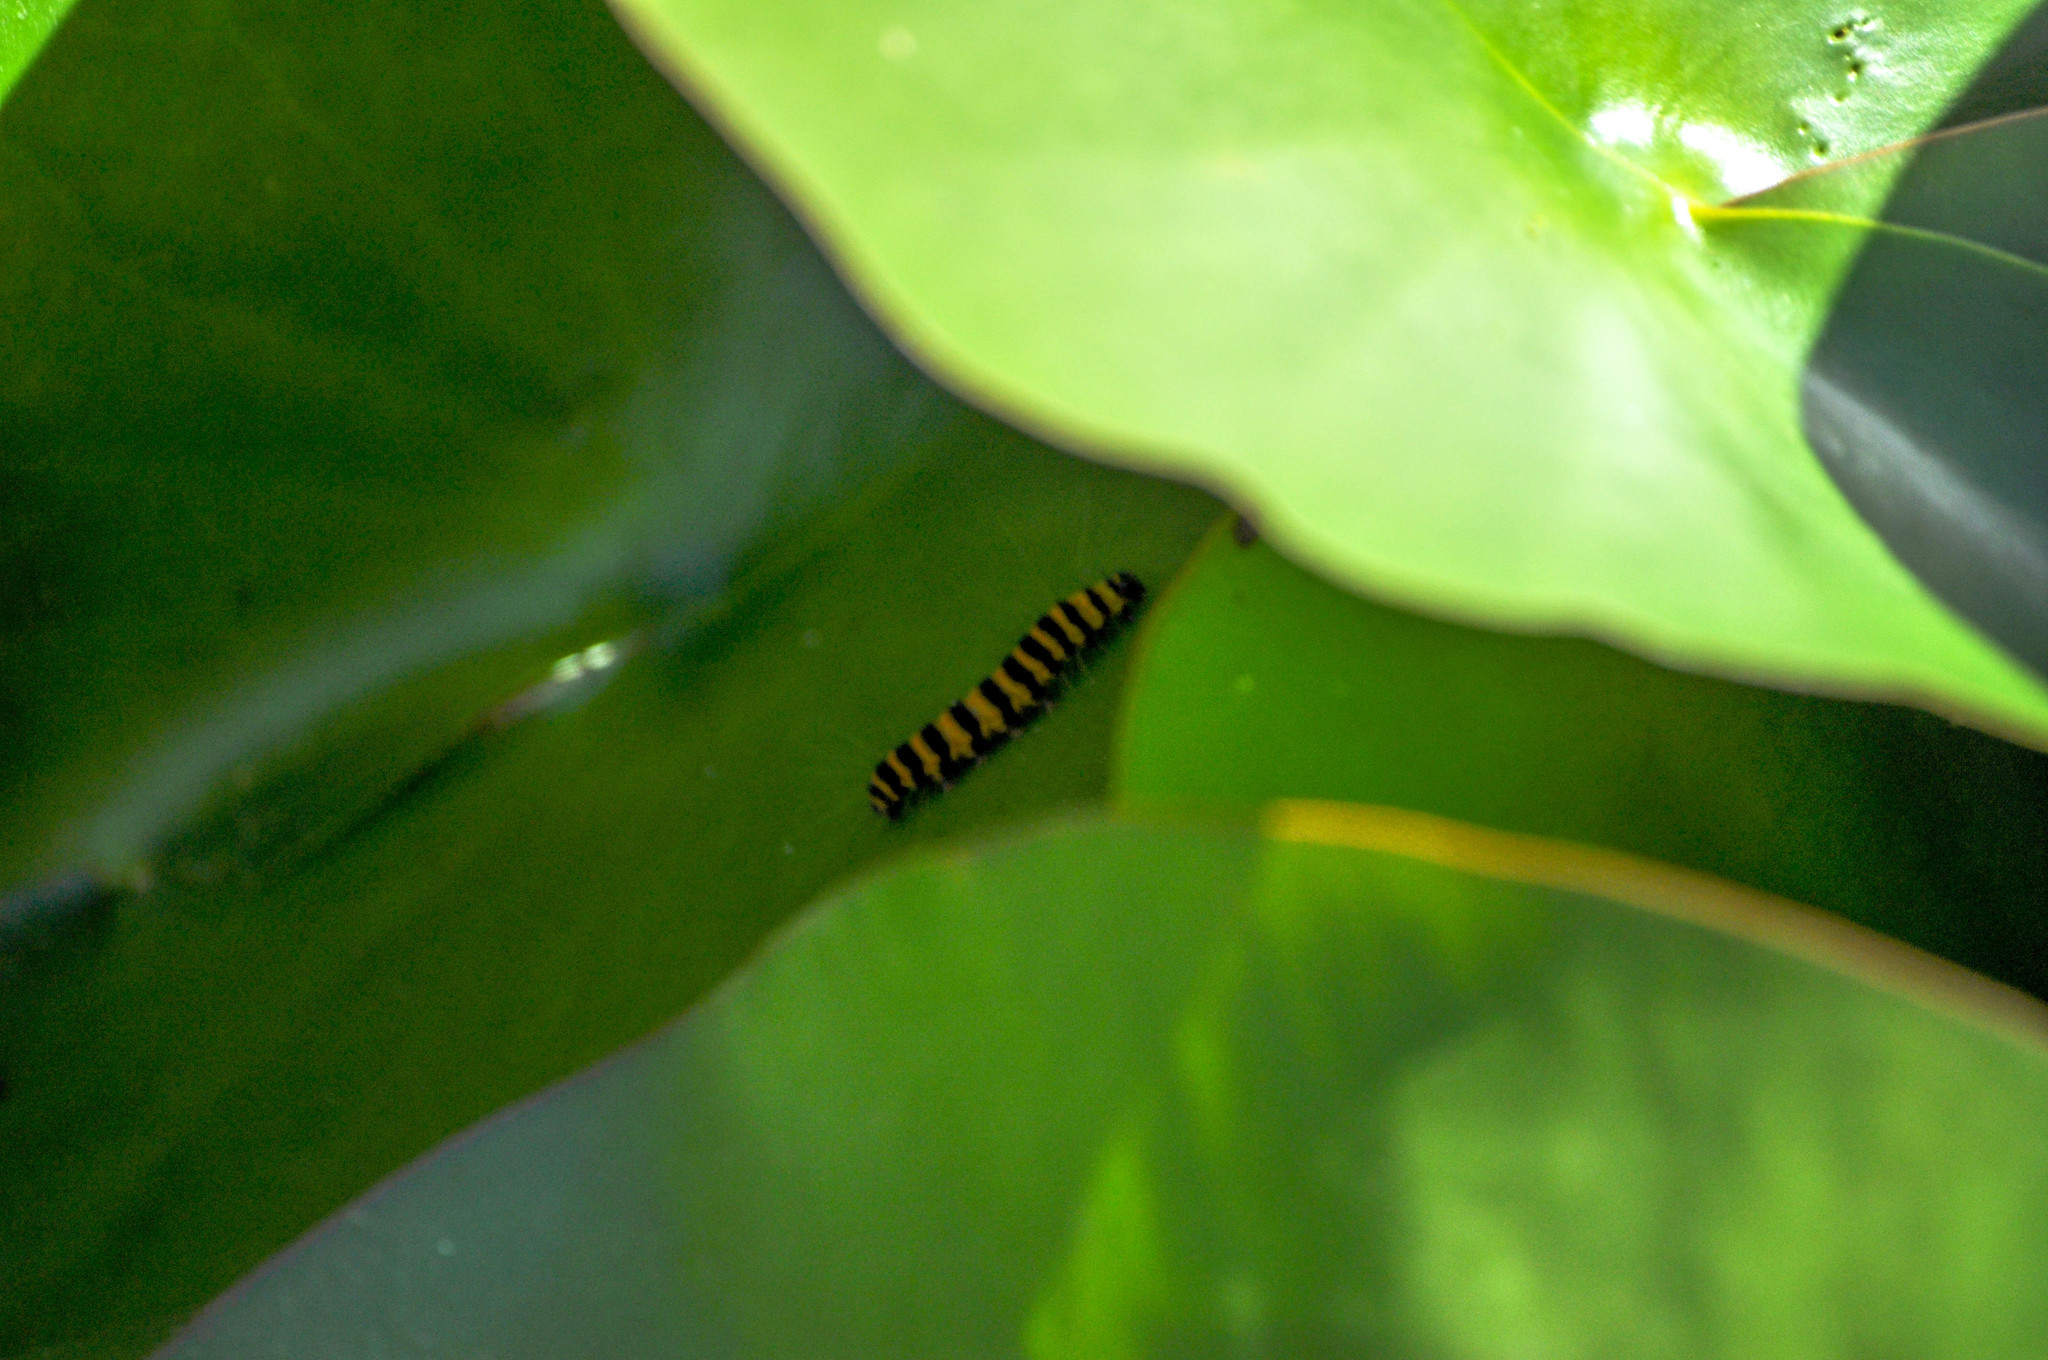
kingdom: Animalia
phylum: Arthropoda
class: Insecta
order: Lepidoptera
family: Erebidae
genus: Tyria
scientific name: Tyria jacobaeae
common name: Cinnabar
